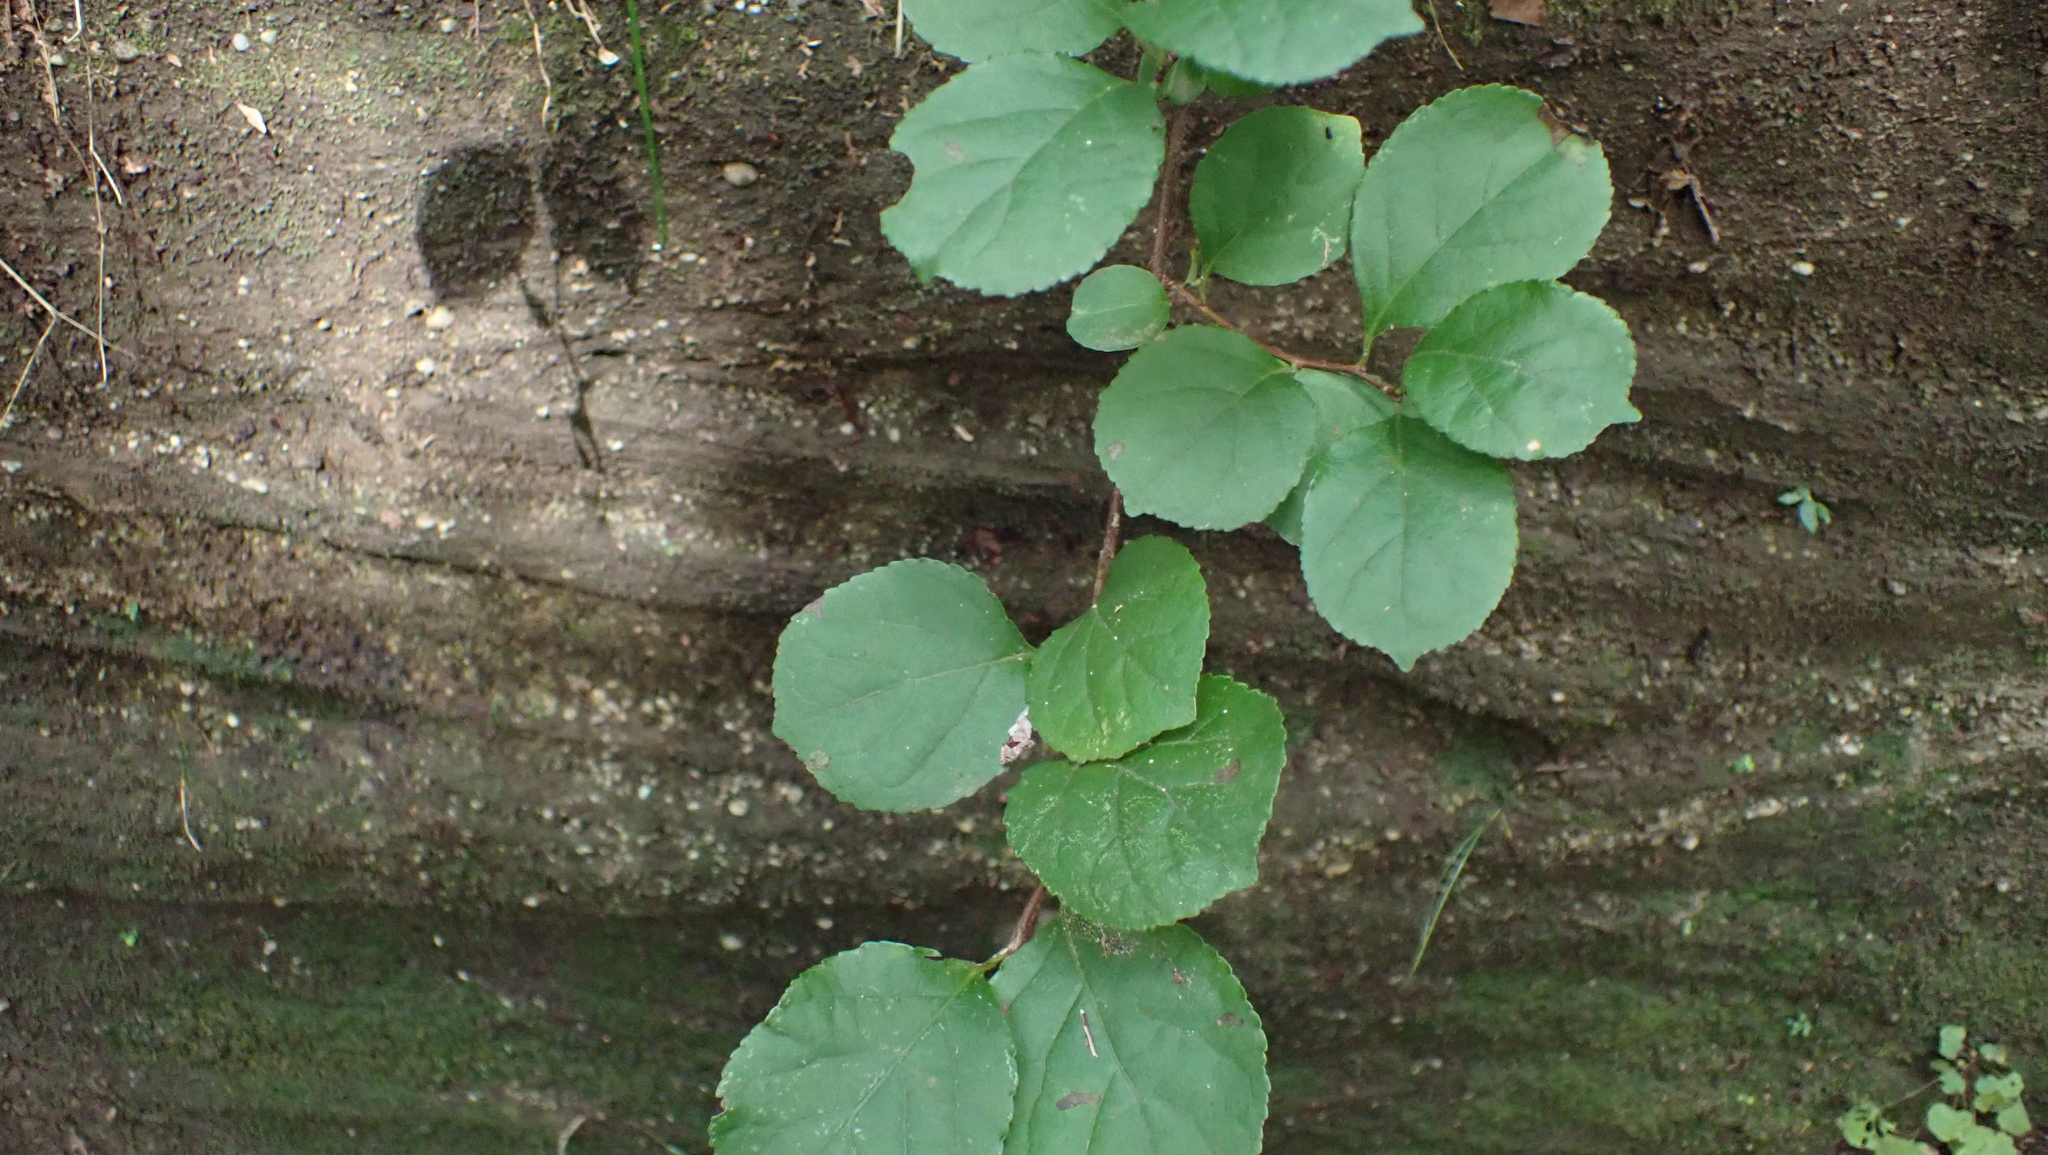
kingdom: Plantae
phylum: Tracheophyta
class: Magnoliopsida
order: Celastrales
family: Celastraceae
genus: Celastrus
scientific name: Celastrus orbiculatus
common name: Oriental bittersweet
